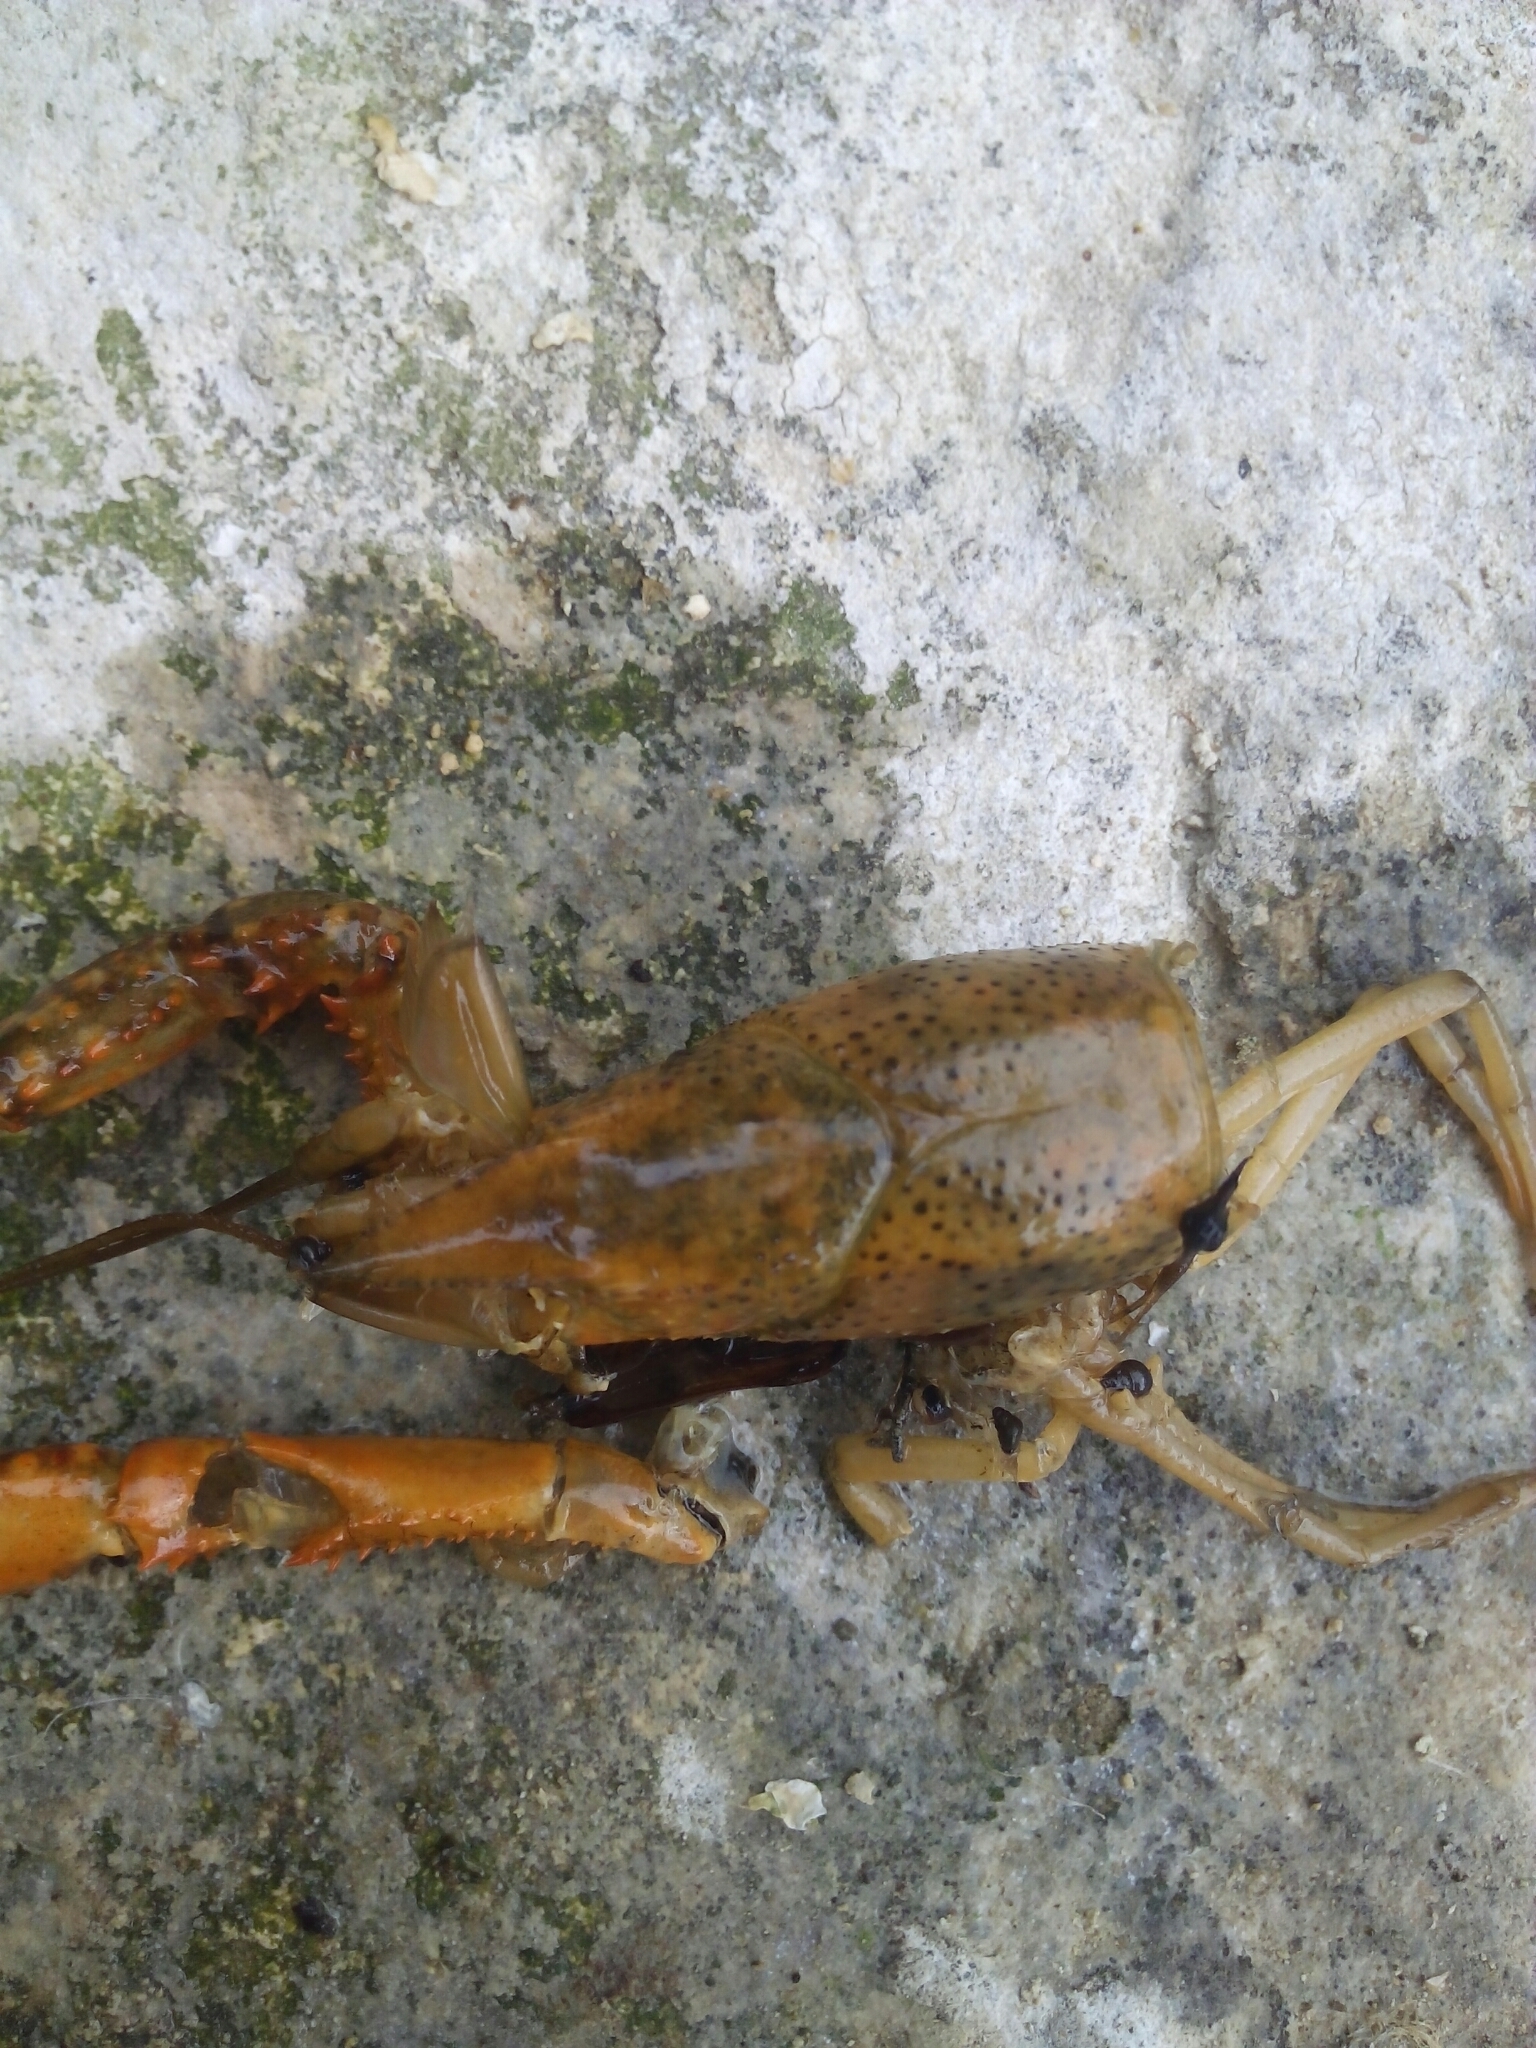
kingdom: Animalia
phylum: Arthropoda
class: Malacostraca
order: Decapoda
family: Cambaridae
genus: Procambarus
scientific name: Procambarus clarkii
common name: Red swamp crayfish
